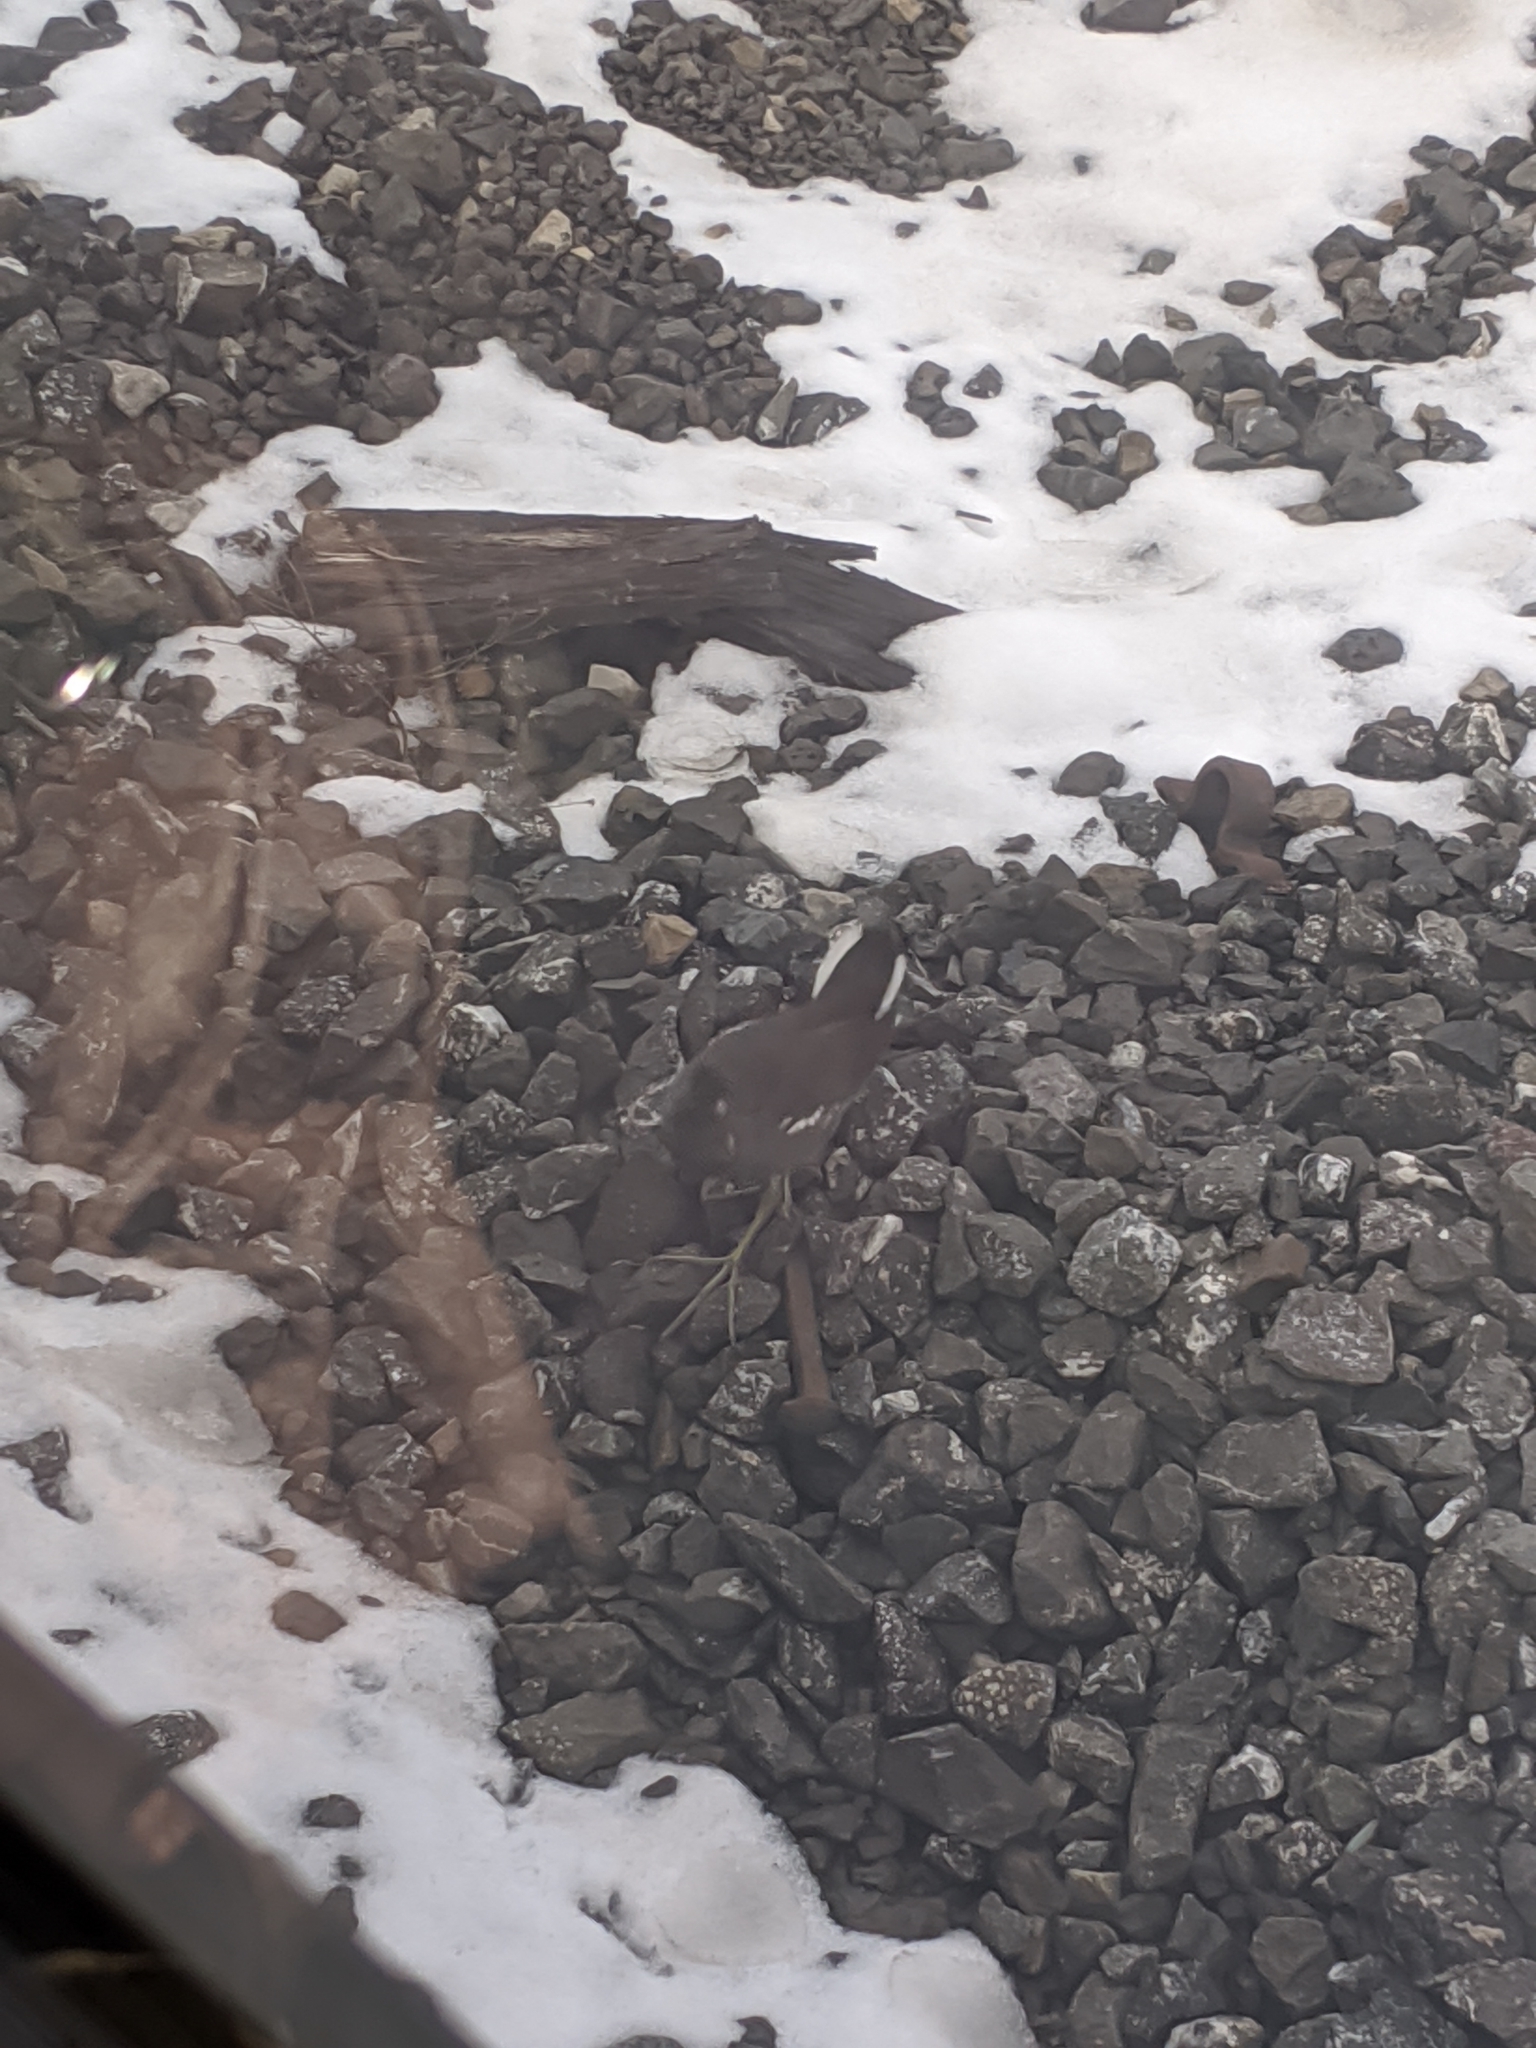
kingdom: Animalia
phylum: Chordata
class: Aves
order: Gruiformes
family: Rallidae
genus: Gallinula
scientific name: Gallinula chloropus
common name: Common moorhen
